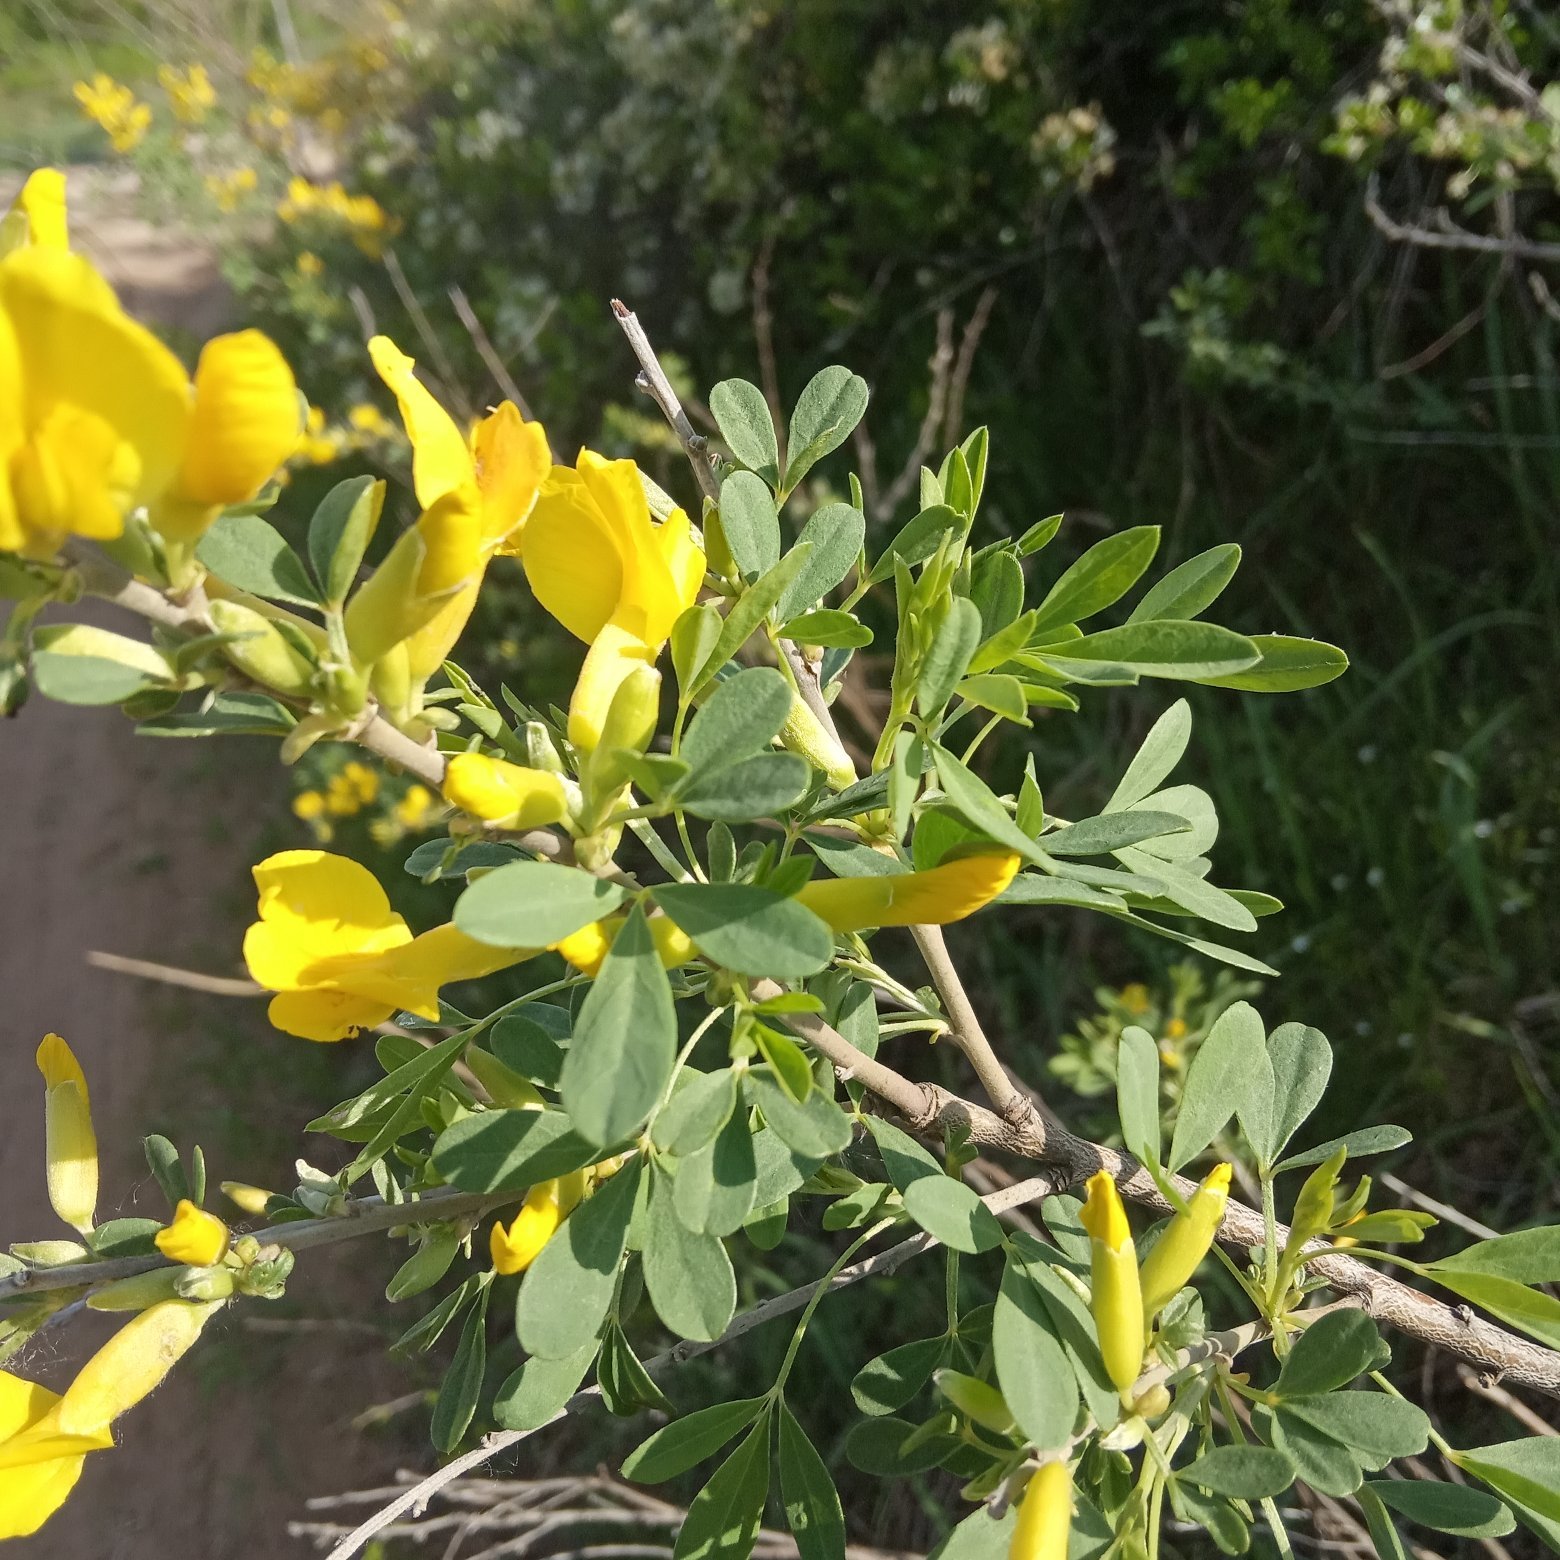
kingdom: Plantae
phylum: Tracheophyta
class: Magnoliopsida
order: Fabales
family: Fabaceae
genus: Chamaecytisus
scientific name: Chamaecytisus ruthenicus
